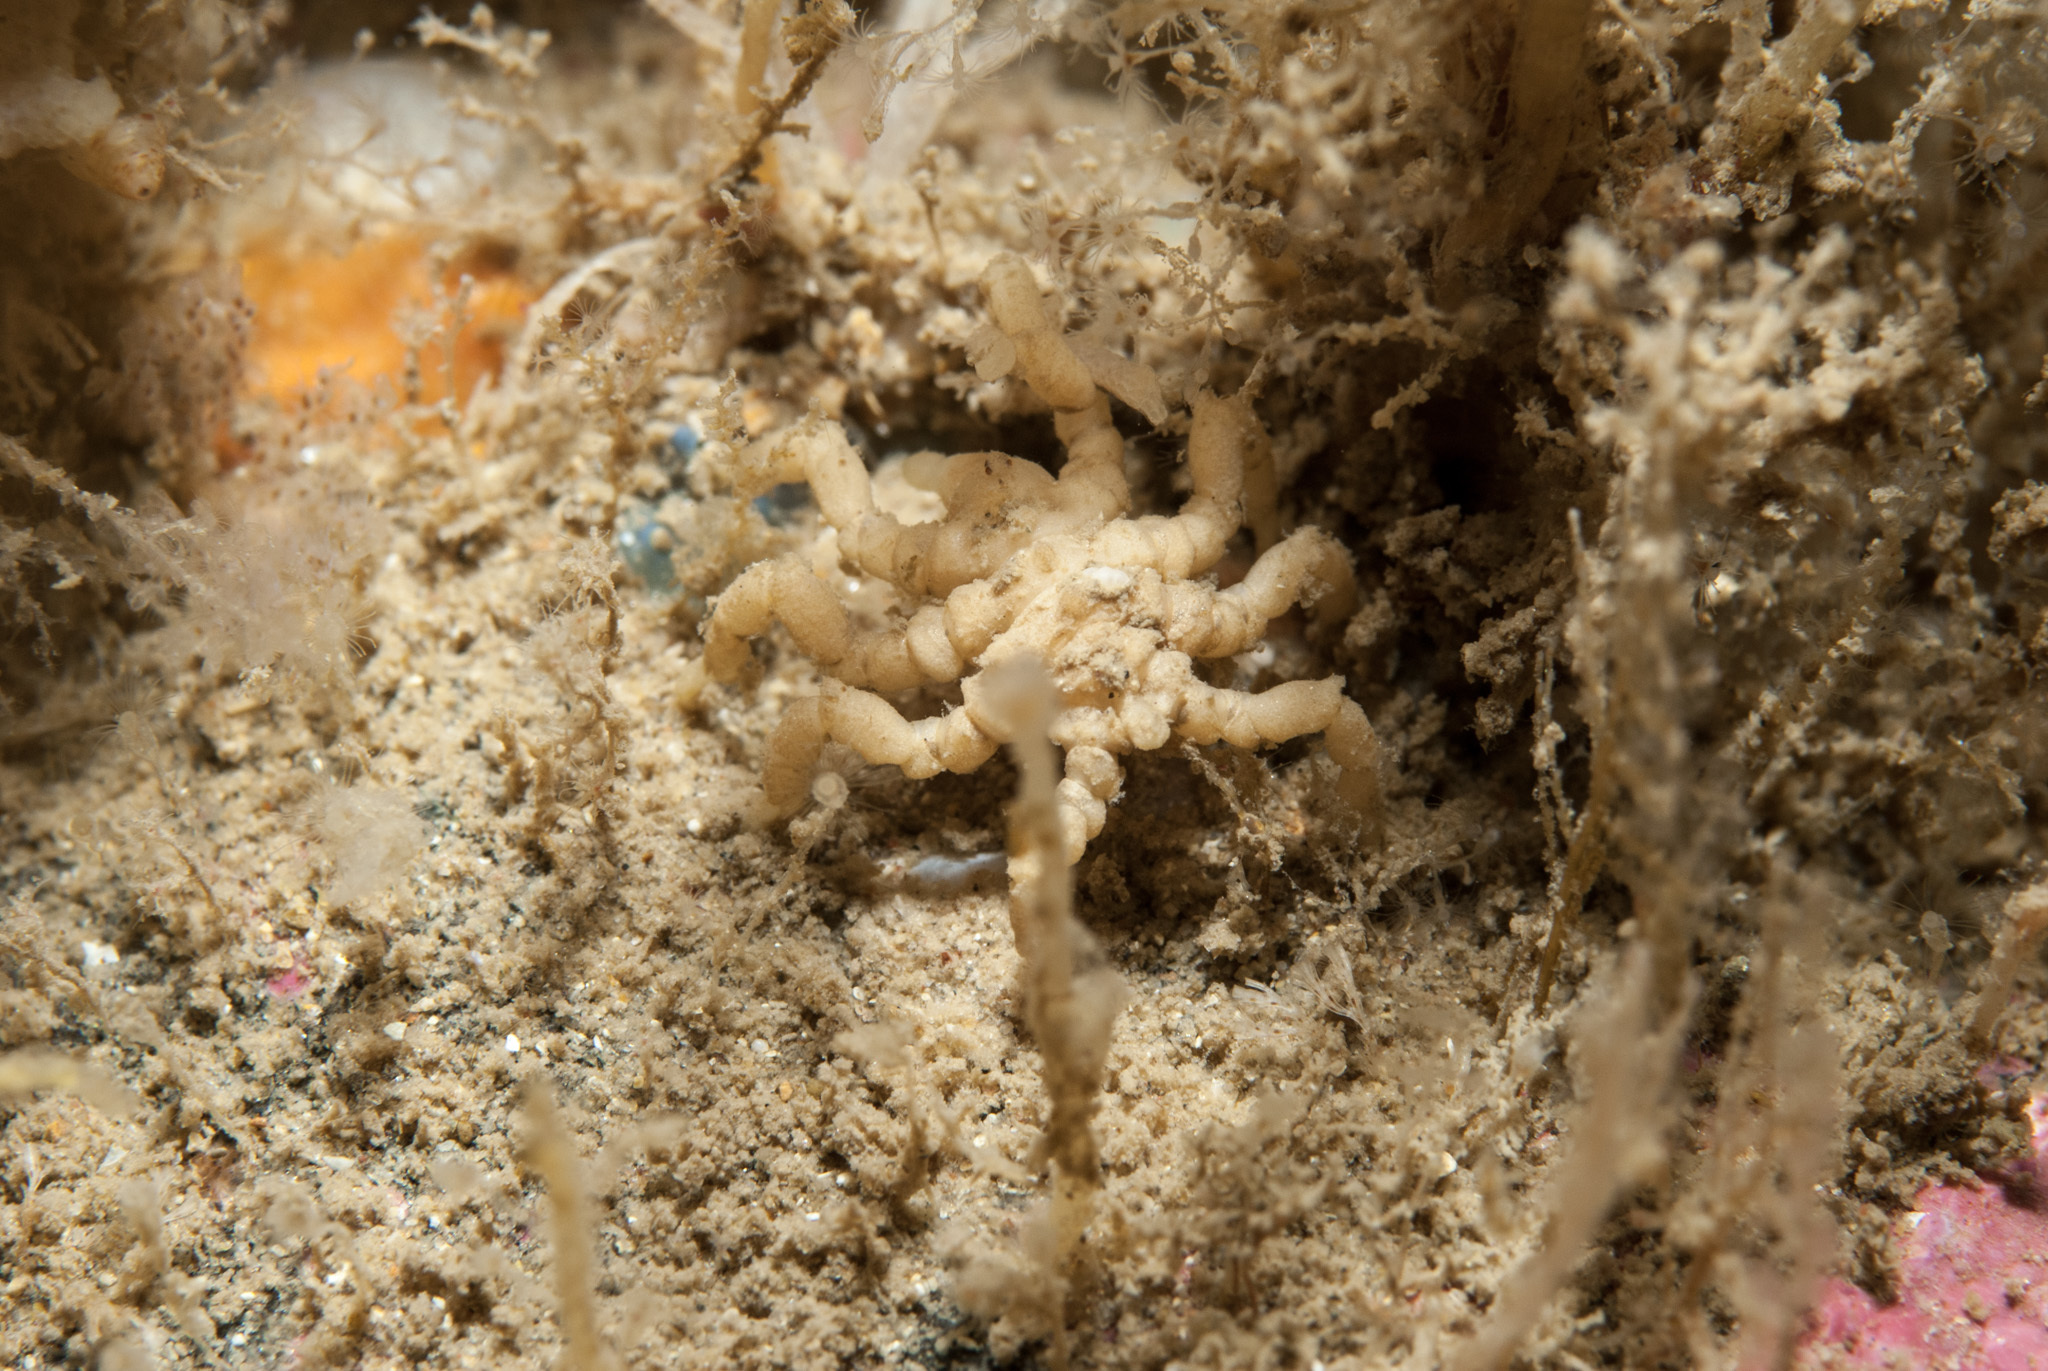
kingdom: Animalia
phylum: Arthropoda
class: Pycnogonida
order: Pantopoda
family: Pycnogonidae
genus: Pycnogonum
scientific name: Pycnogonum litorale
